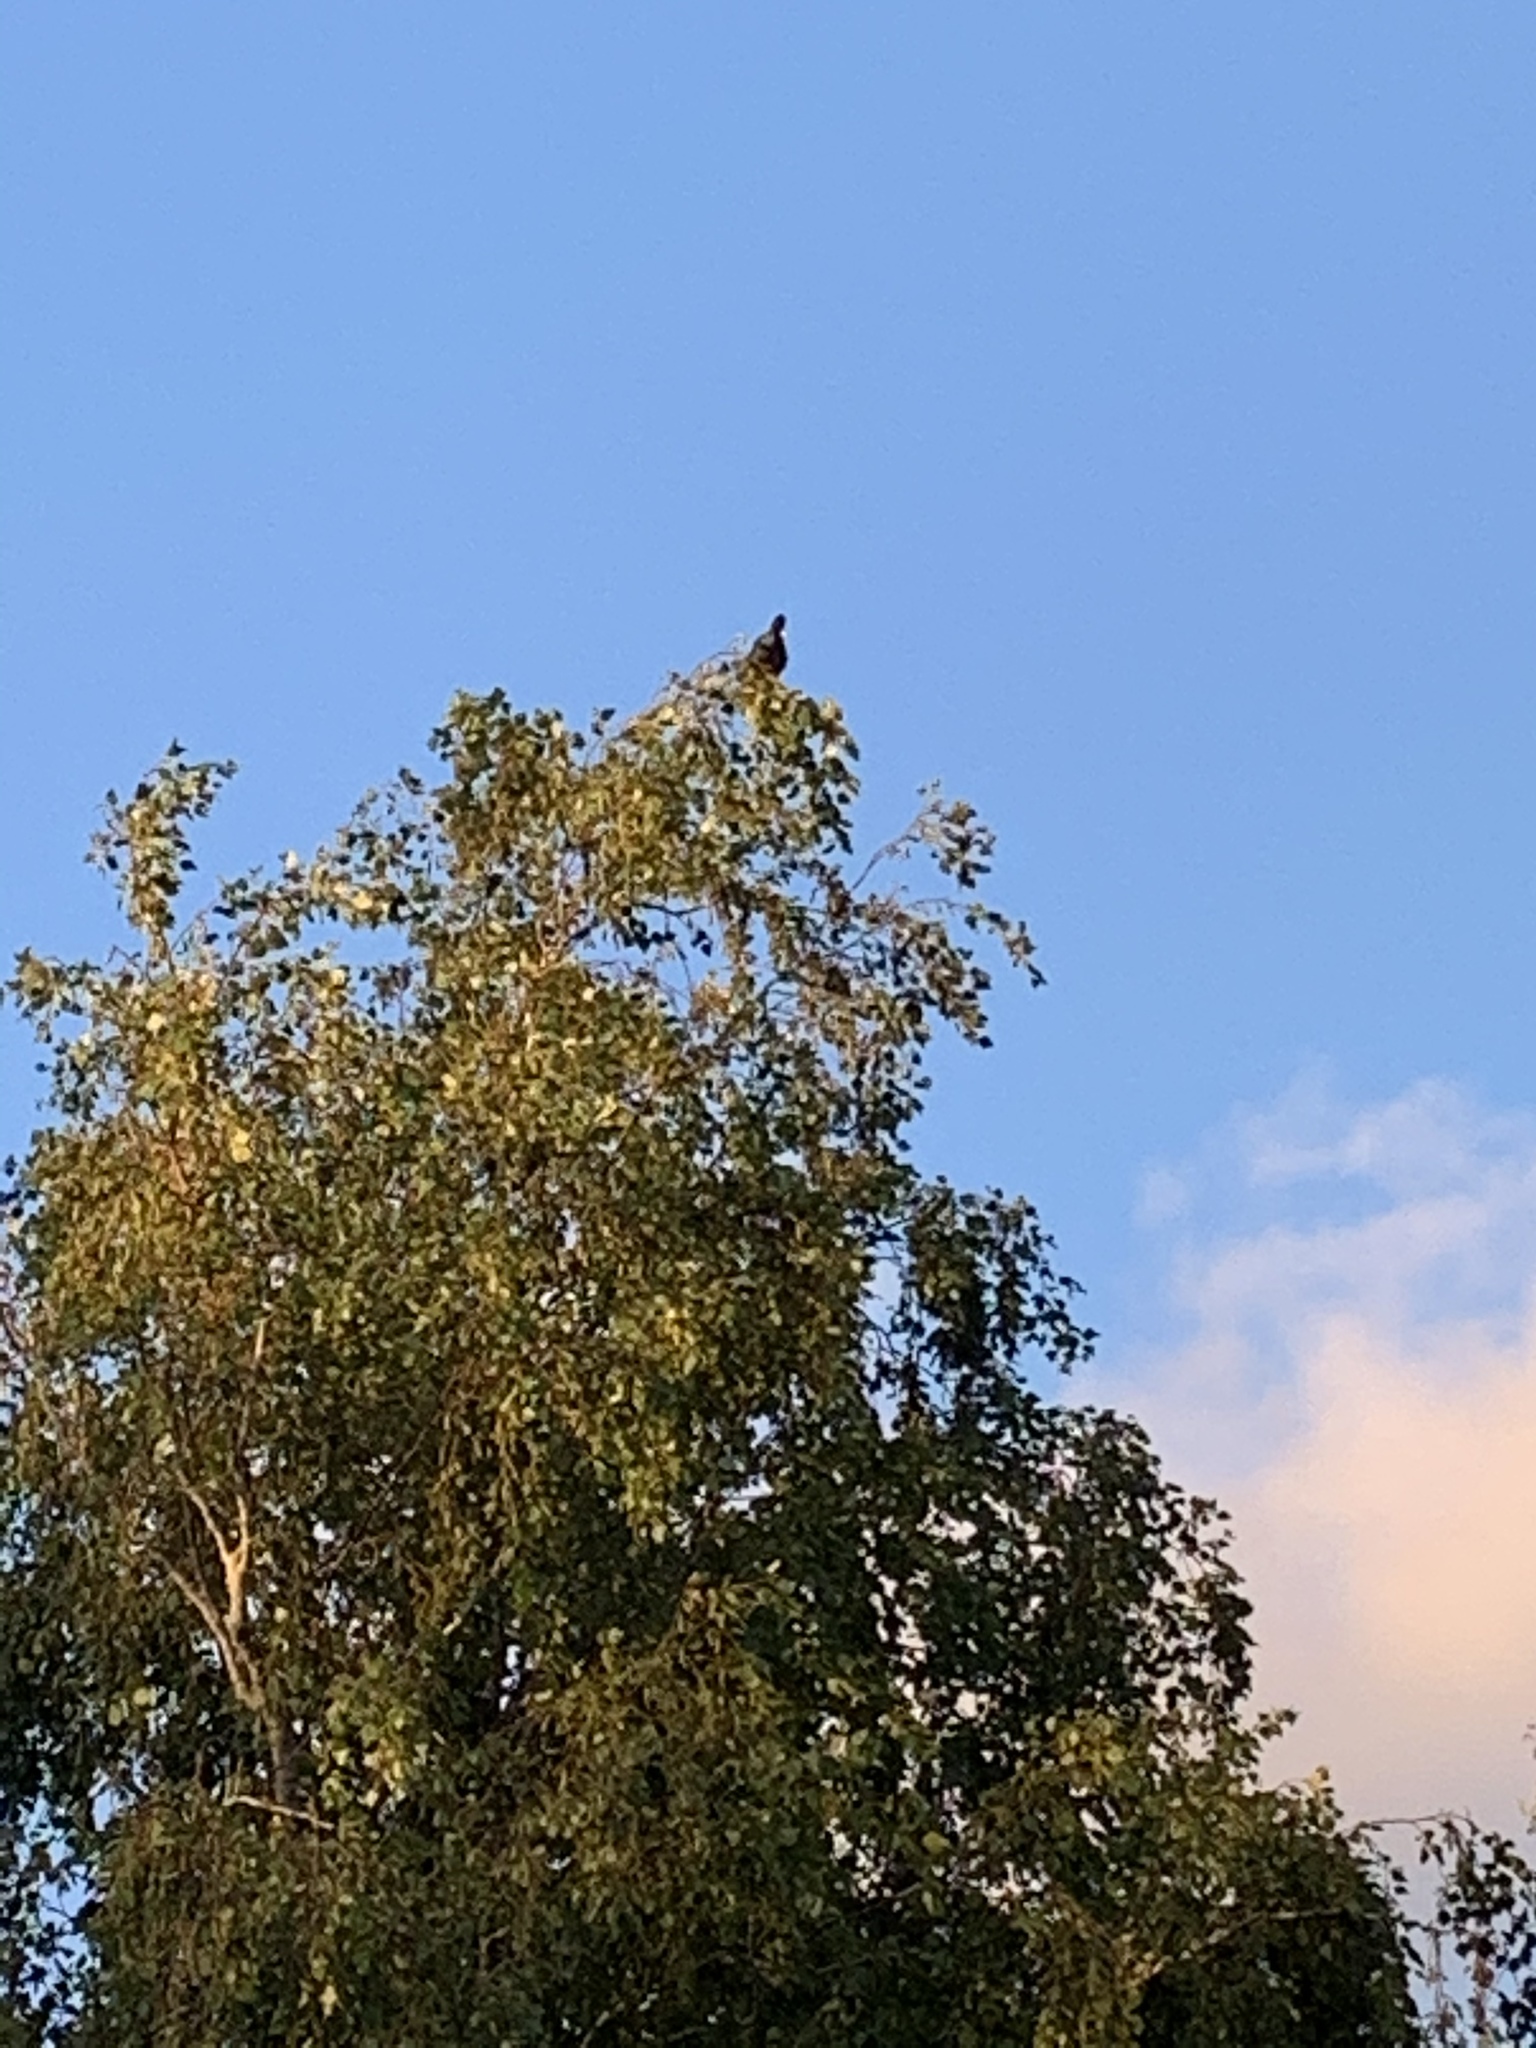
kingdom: Animalia
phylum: Chordata
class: Aves
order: Passeriformes
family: Meliphagidae
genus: Prosthemadera
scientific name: Prosthemadera novaeseelandiae
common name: Tui
